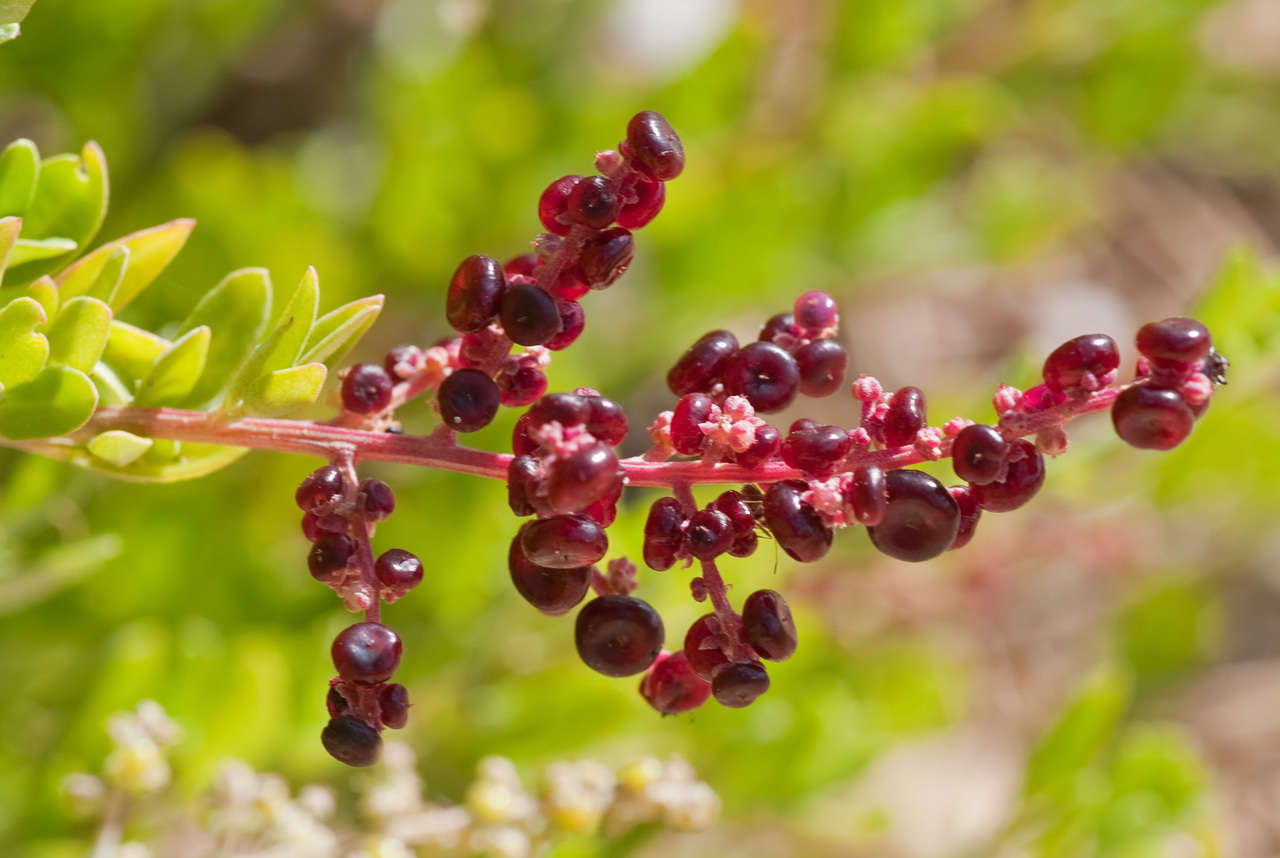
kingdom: Plantae
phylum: Tracheophyta
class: Magnoliopsida
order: Caryophyllales
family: Amaranthaceae
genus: Chenopodium
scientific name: Chenopodium candolleanum
